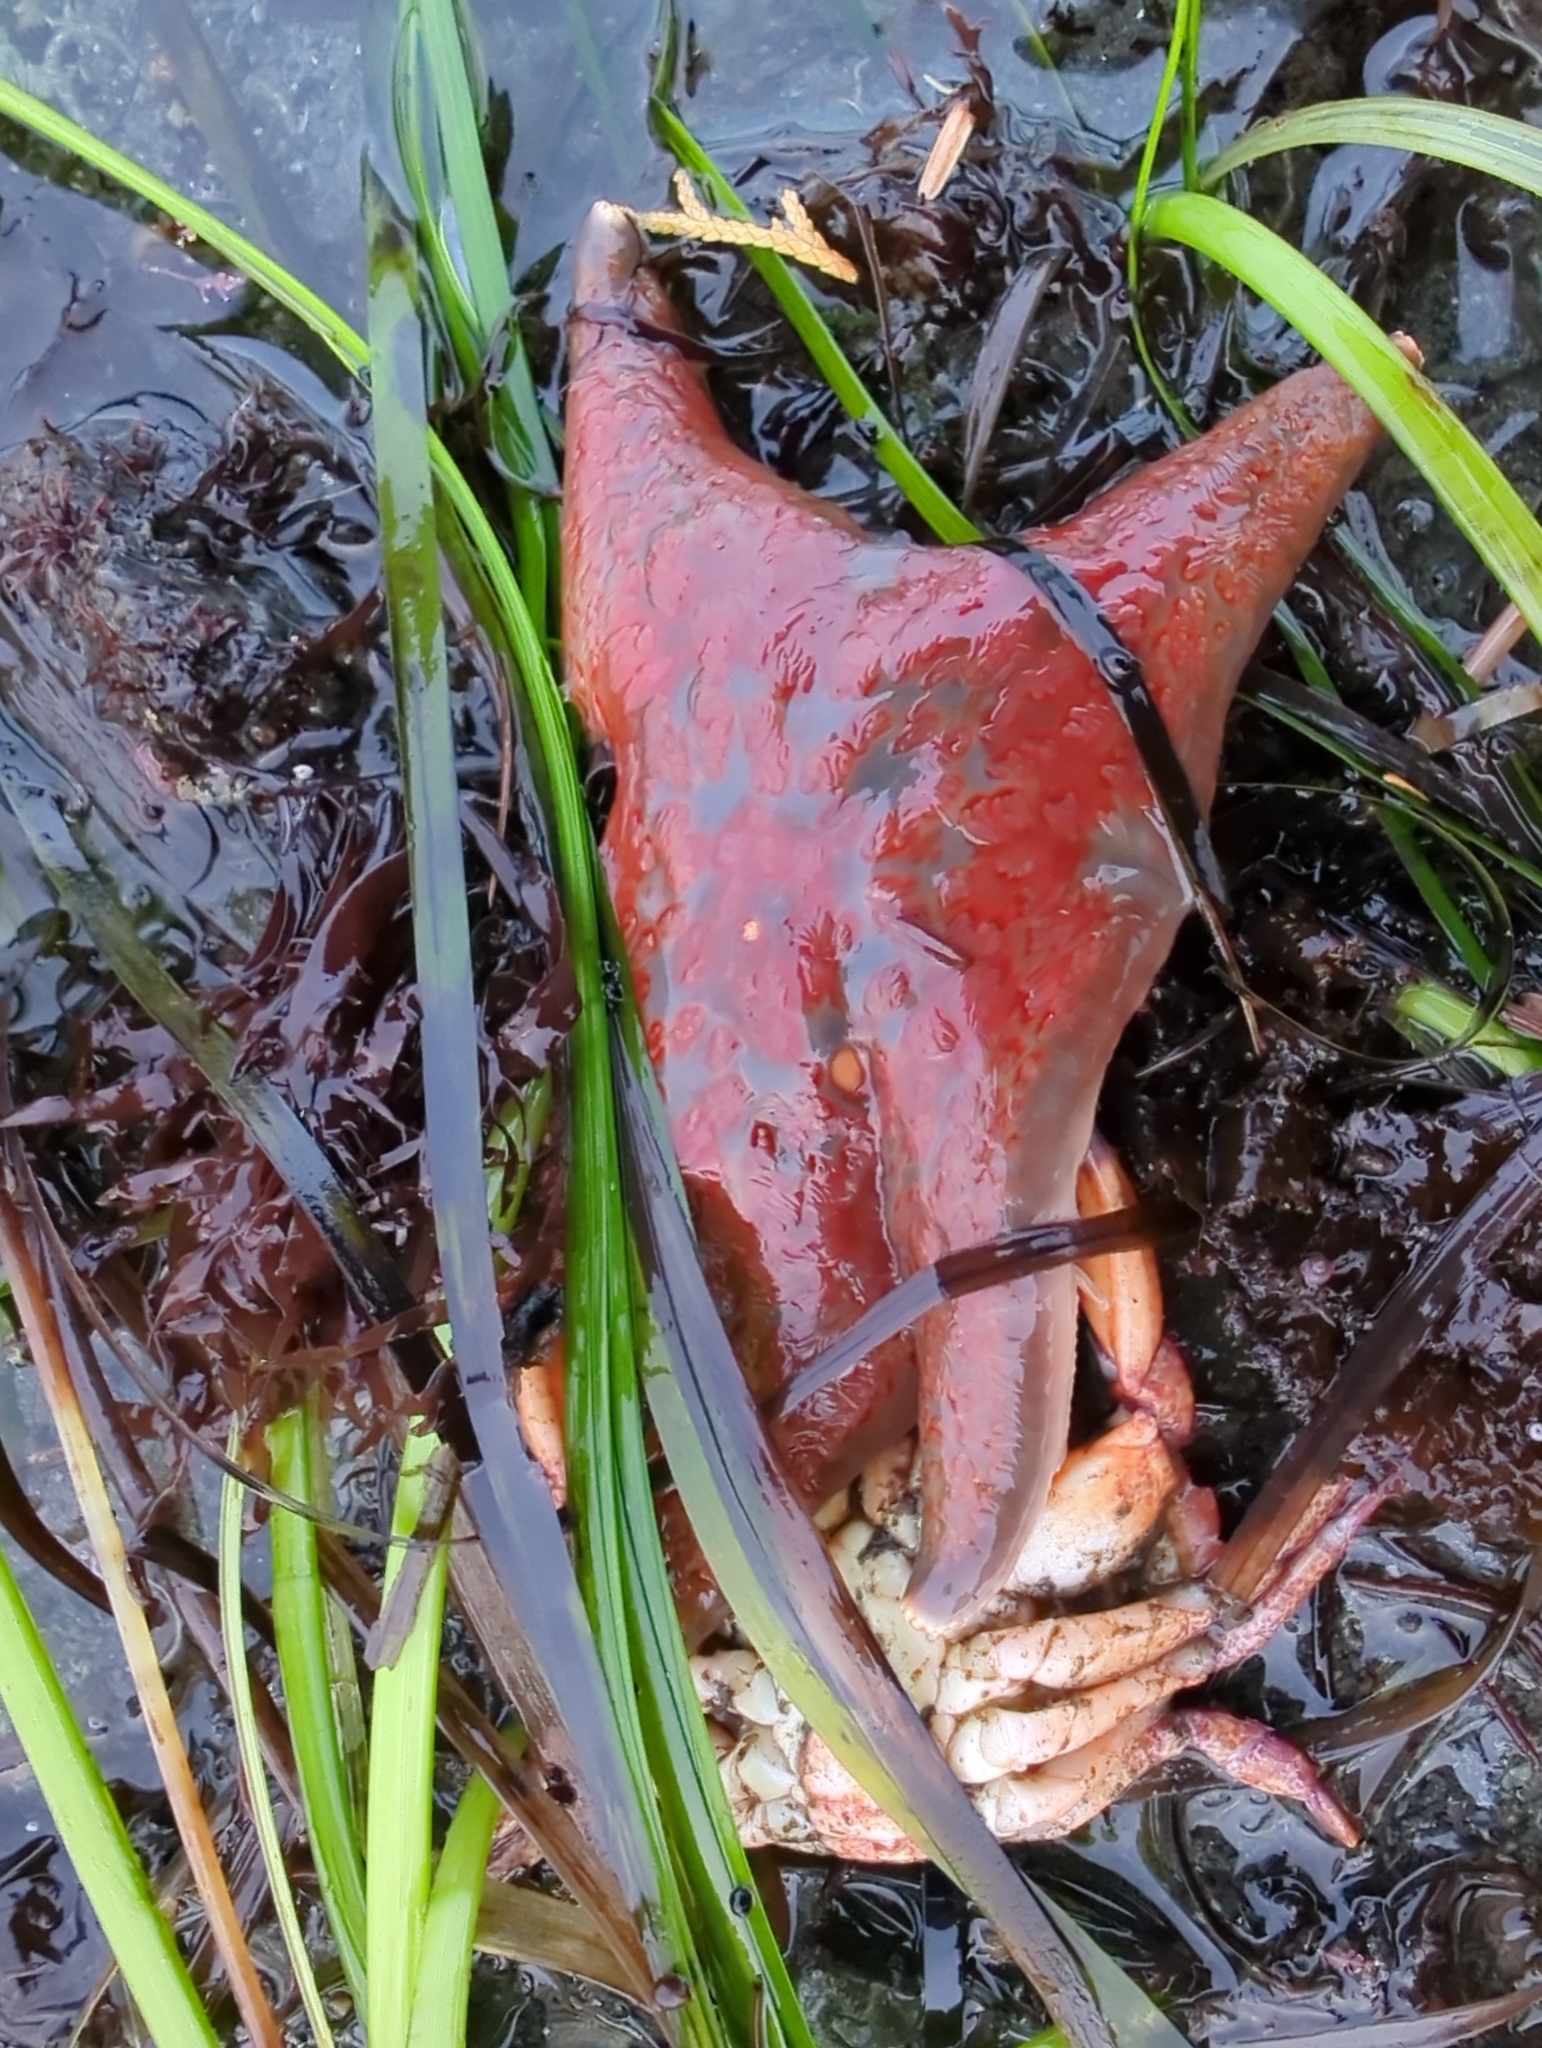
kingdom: Animalia
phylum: Echinodermata
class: Asteroidea
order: Valvatida
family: Asteropseidae
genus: Dermasterias
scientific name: Dermasterias imbricata
